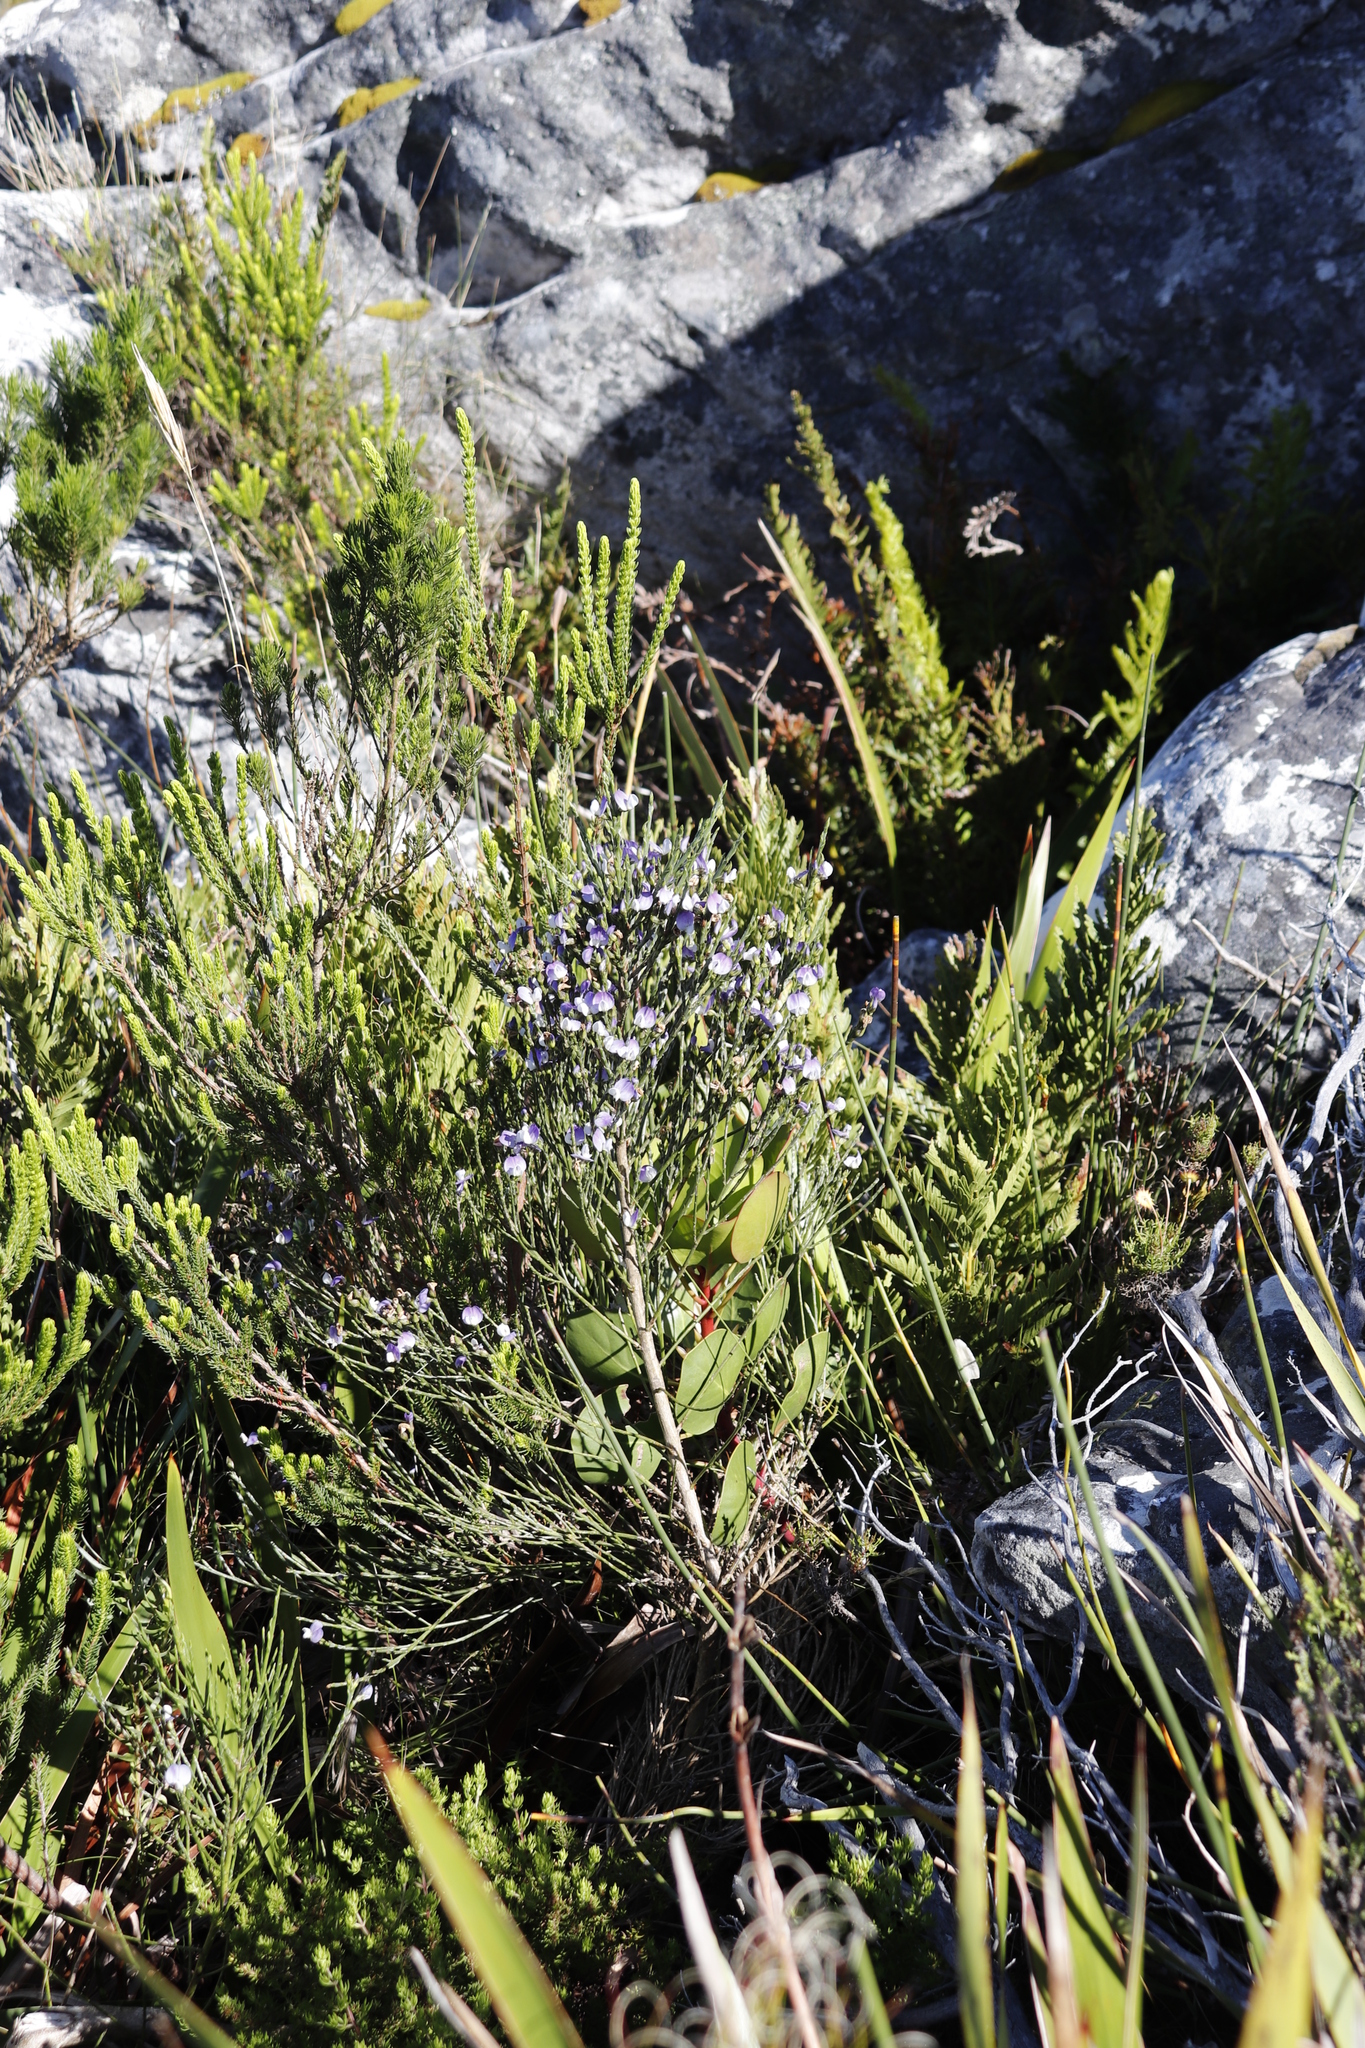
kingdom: Plantae
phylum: Tracheophyta
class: Magnoliopsida
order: Fabales
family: Fabaceae
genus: Psoralea
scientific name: Psoralea aphylla
